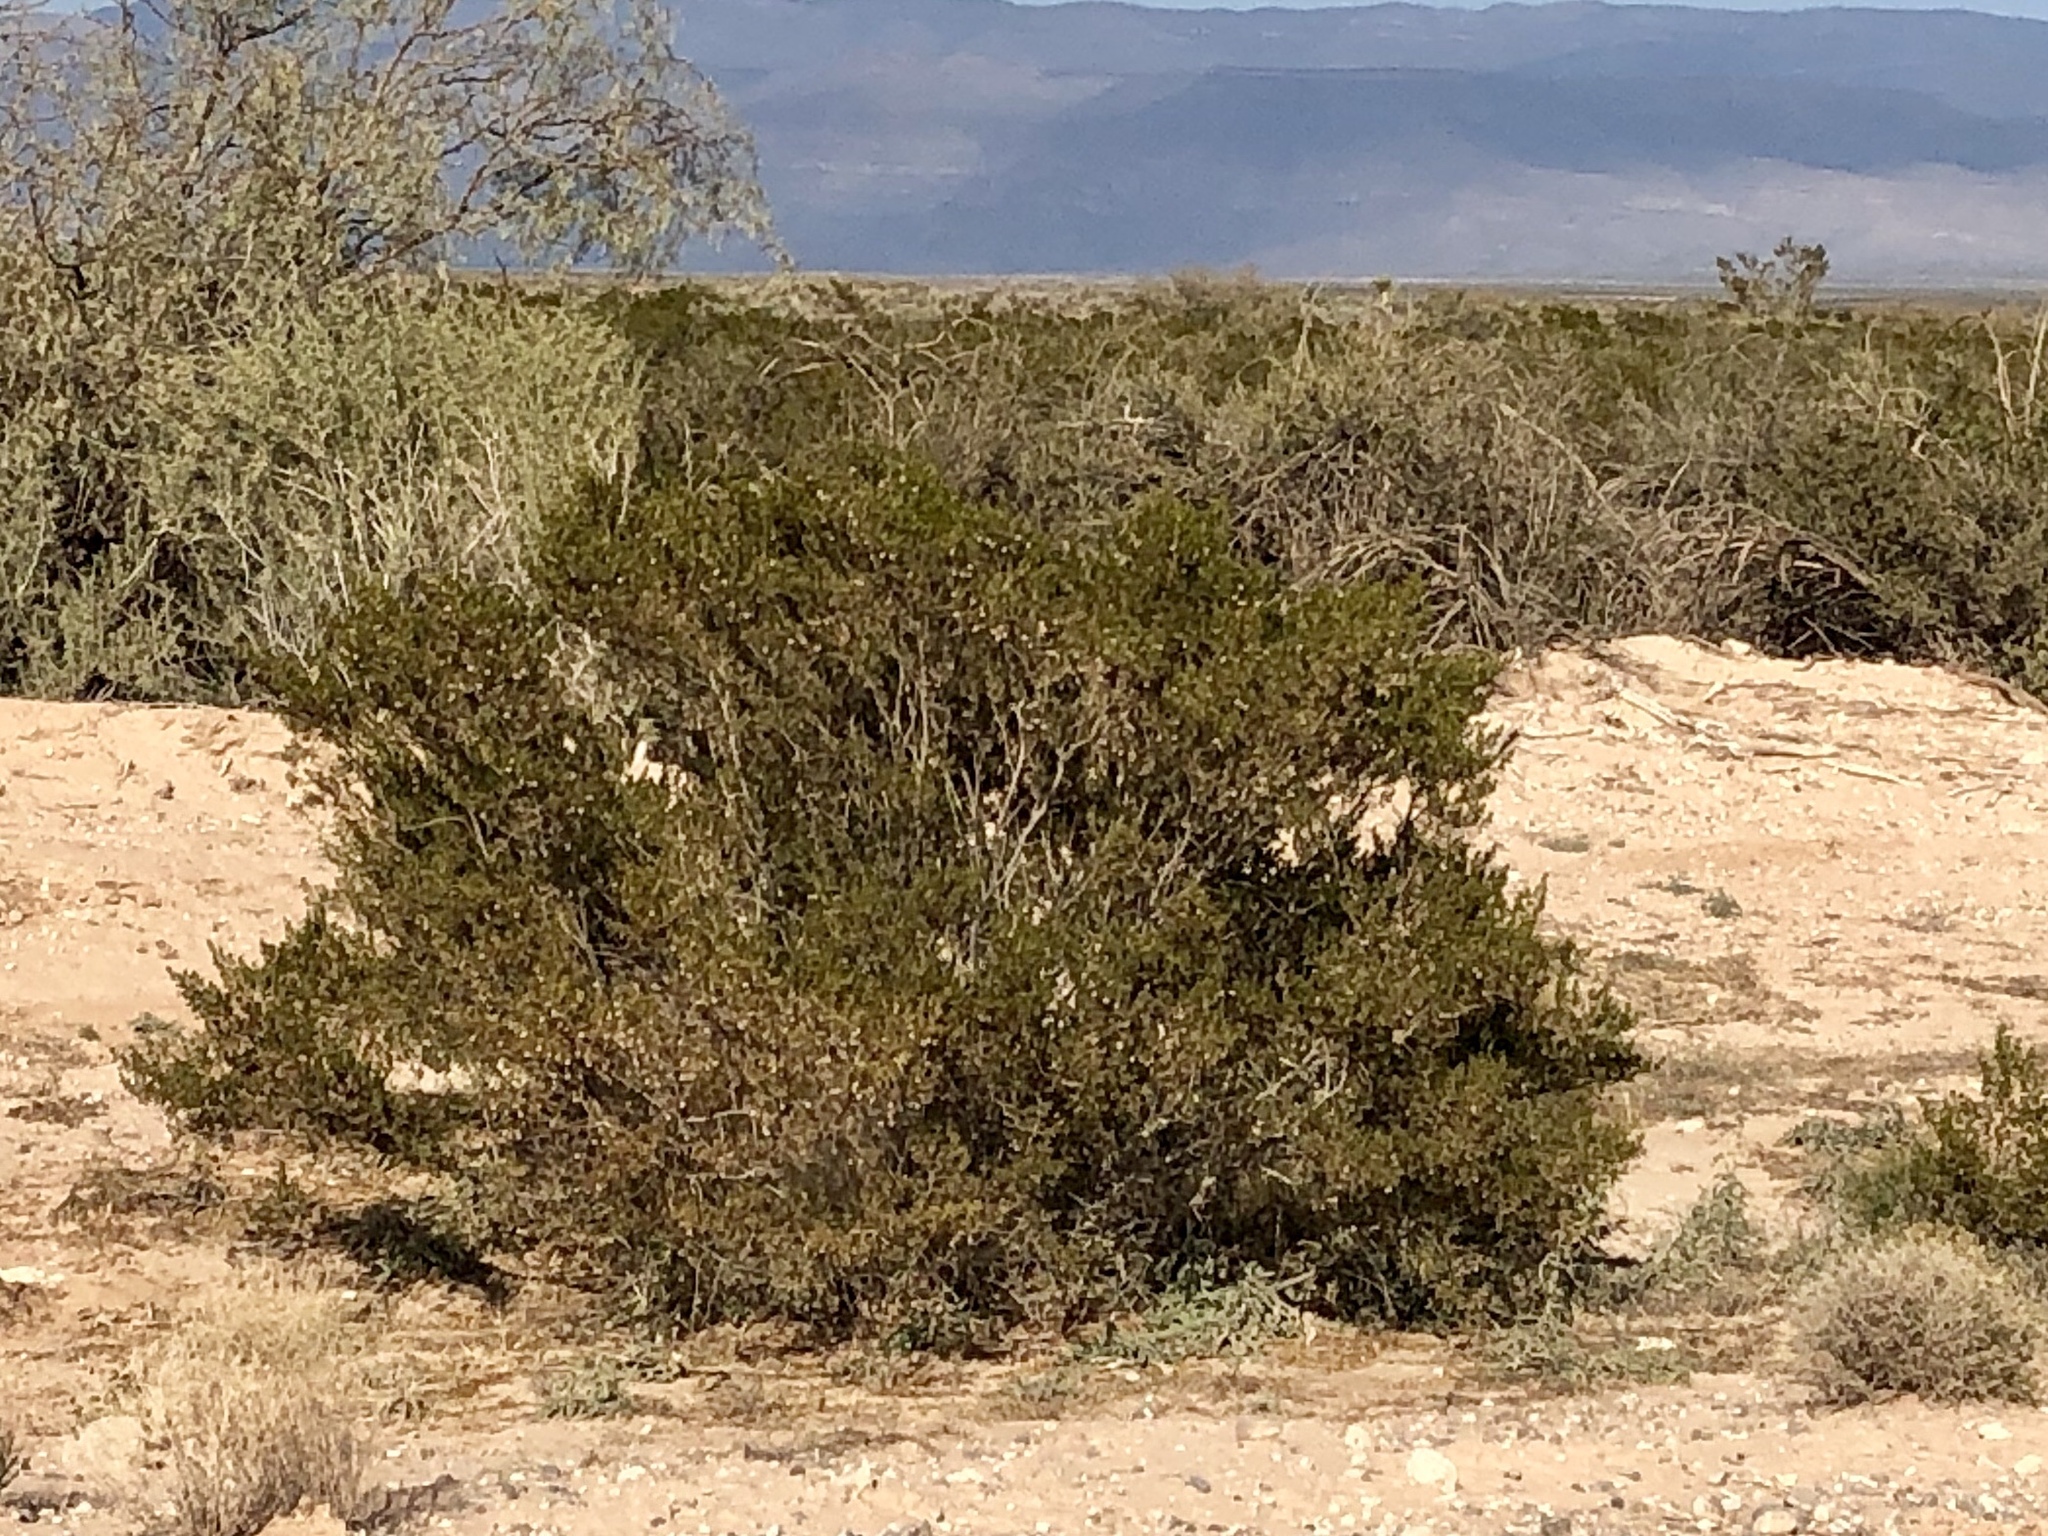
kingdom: Plantae
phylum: Tracheophyta
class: Magnoliopsida
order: Zygophyllales
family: Zygophyllaceae
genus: Larrea
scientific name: Larrea tridentata
